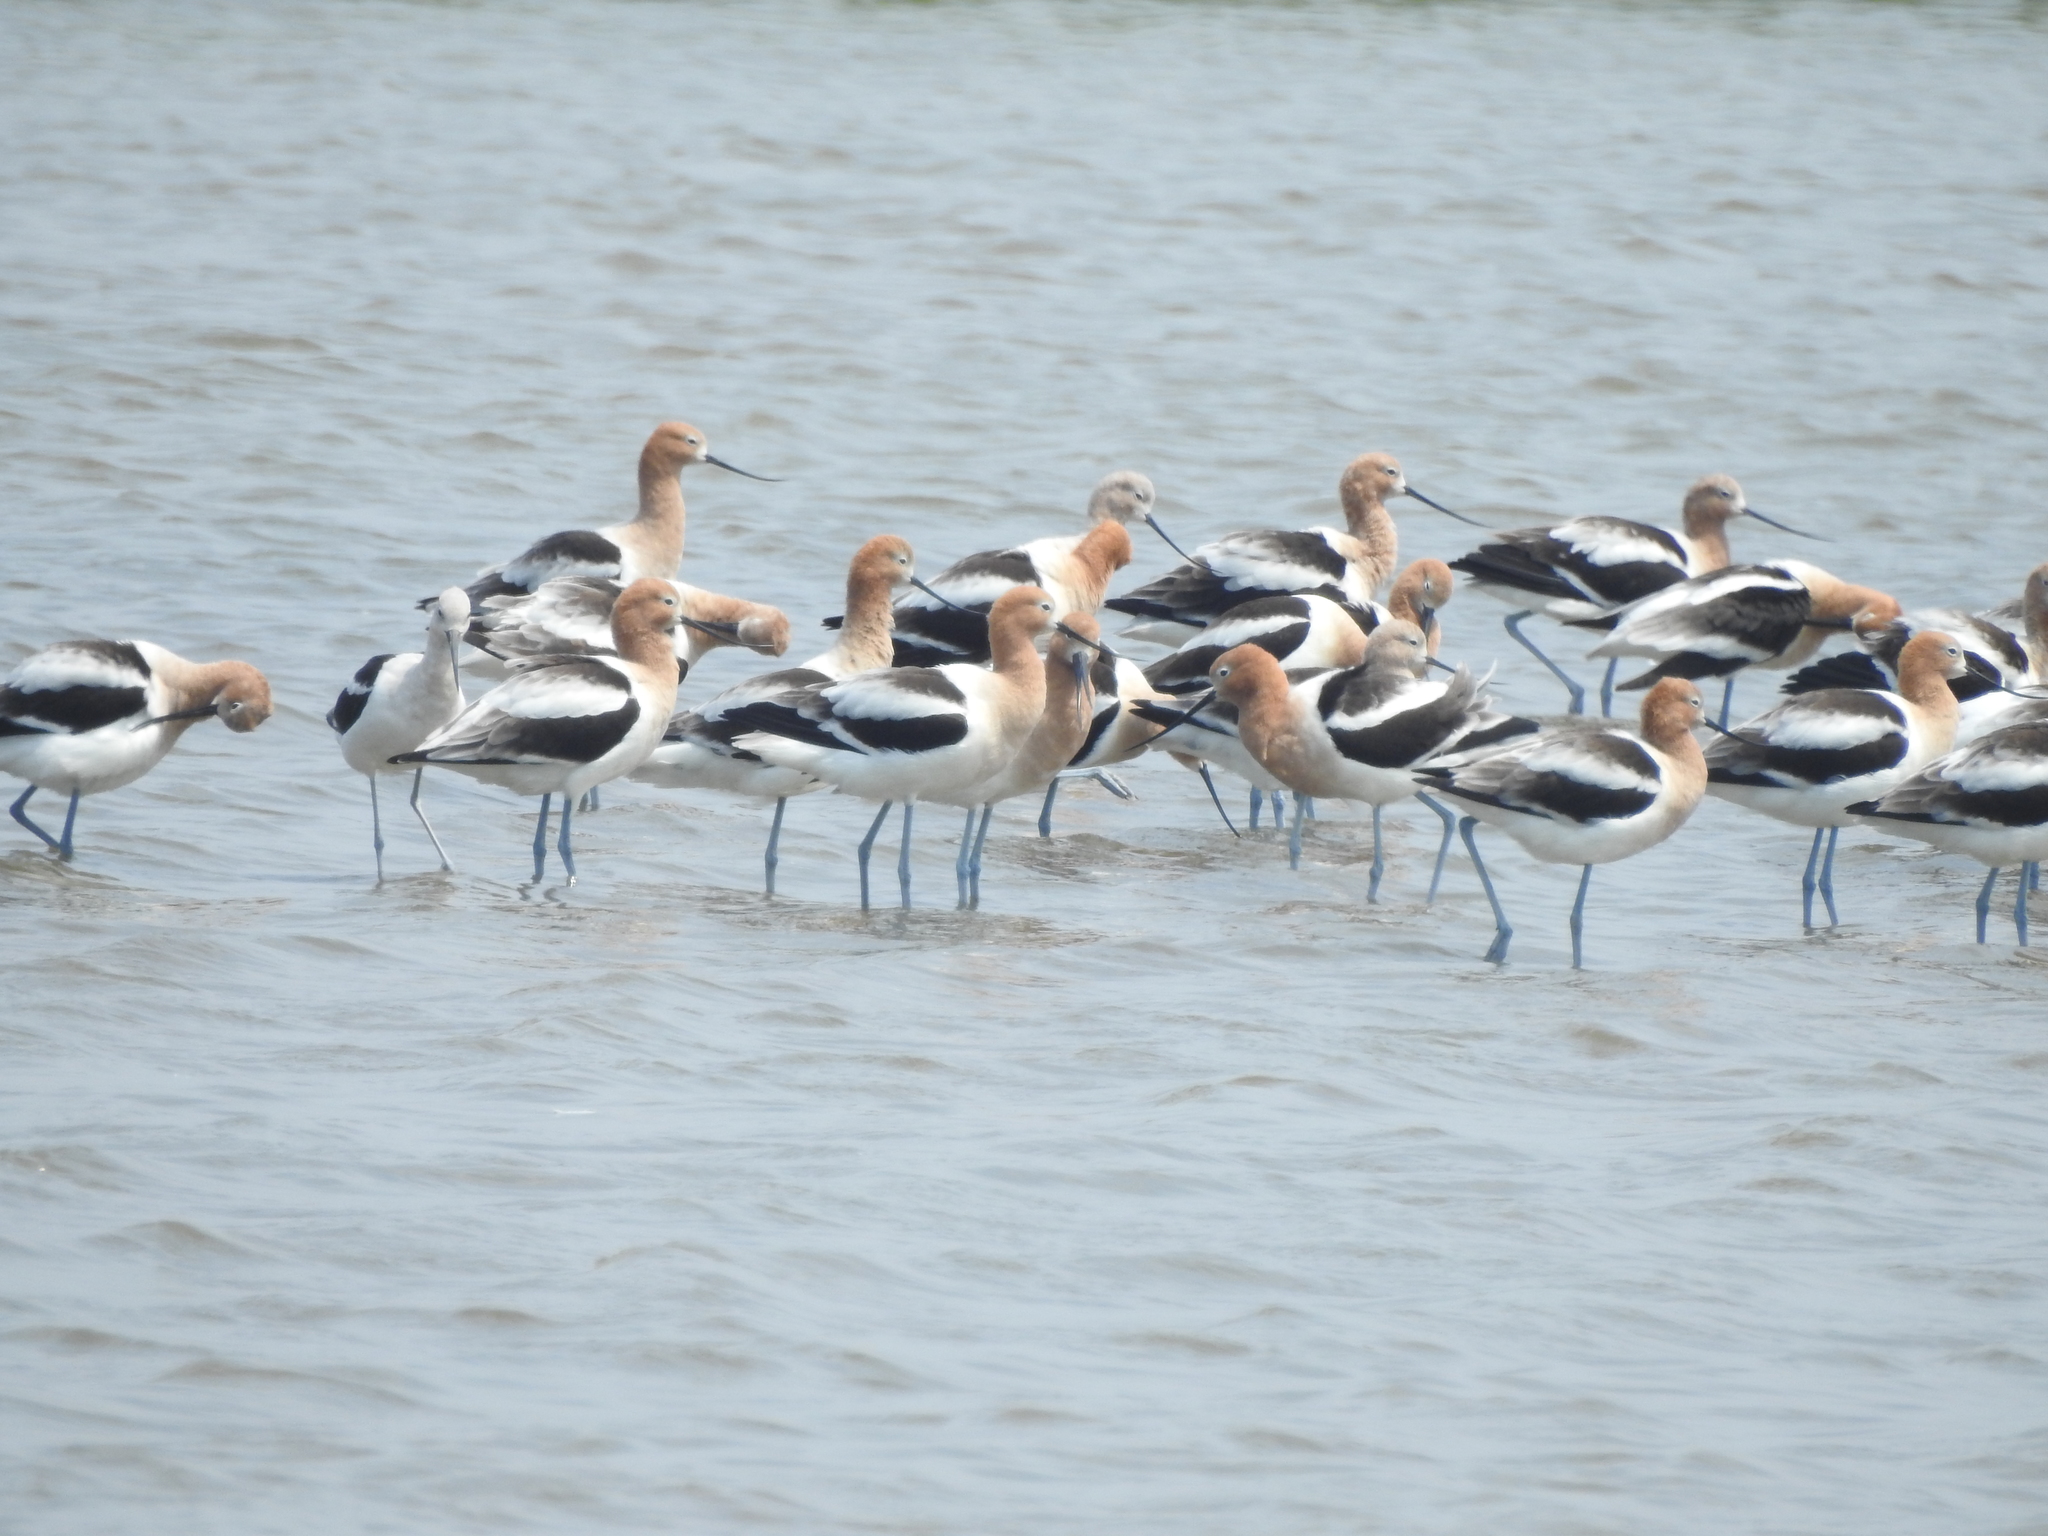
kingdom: Animalia
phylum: Chordata
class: Aves
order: Charadriiformes
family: Recurvirostridae
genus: Recurvirostra
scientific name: Recurvirostra americana
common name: American avocet
